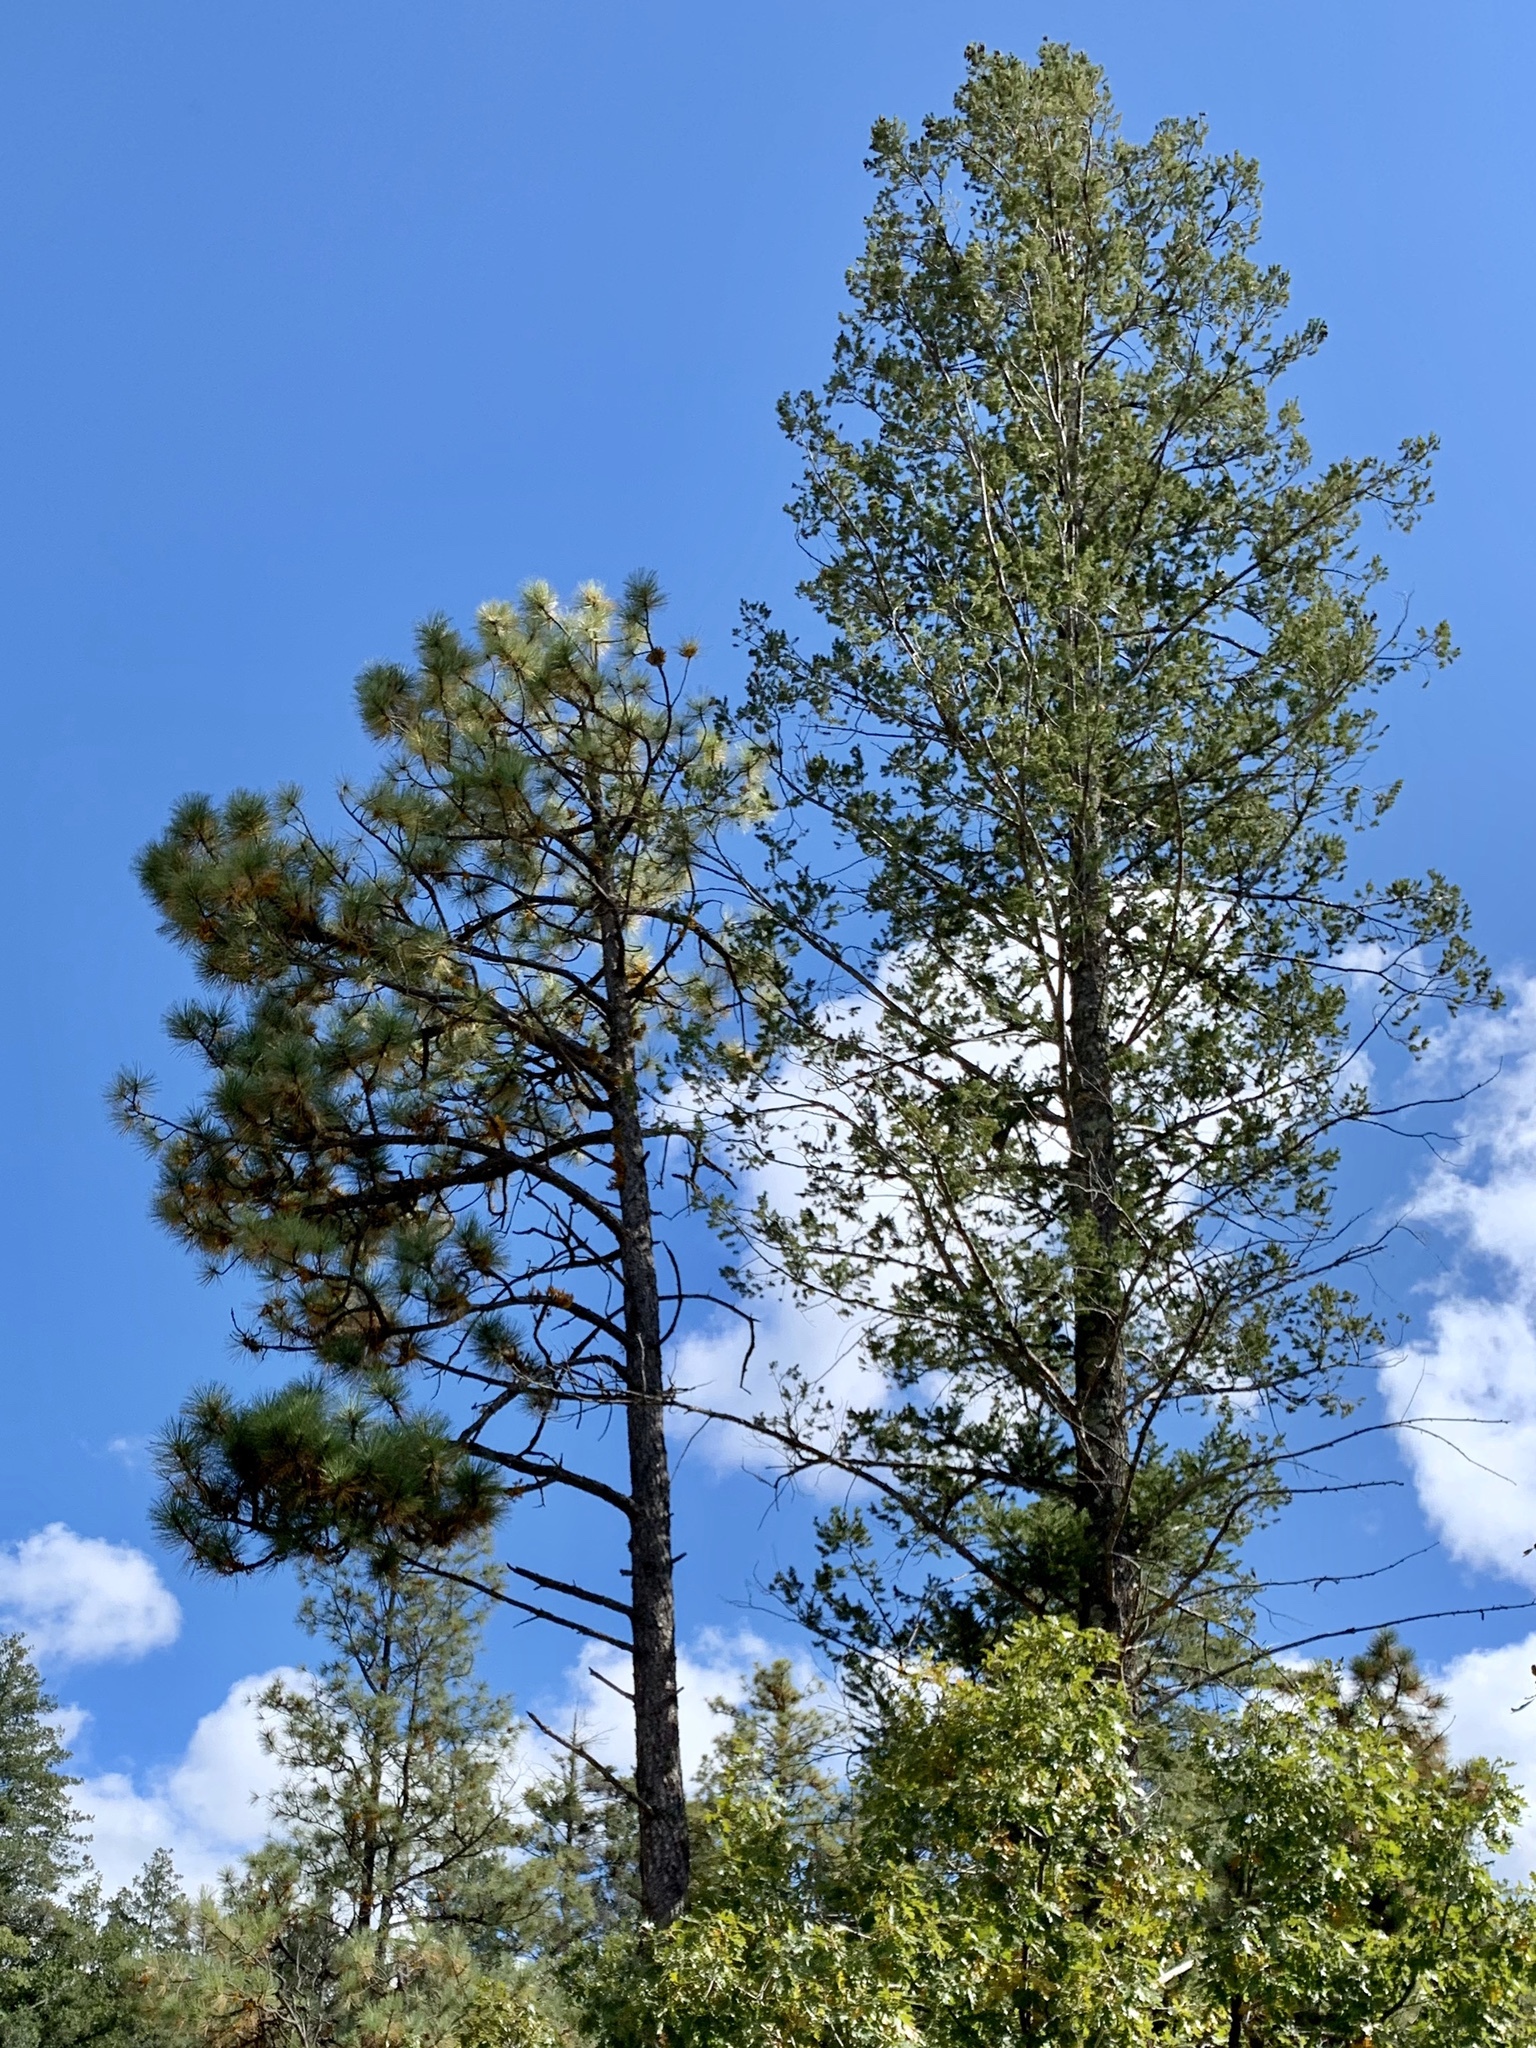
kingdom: Plantae
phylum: Tracheophyta
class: Pinopsida
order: Pinales
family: Pinaceae
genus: Pinus
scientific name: Pinus ponderosa
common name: Western yellow-pine
